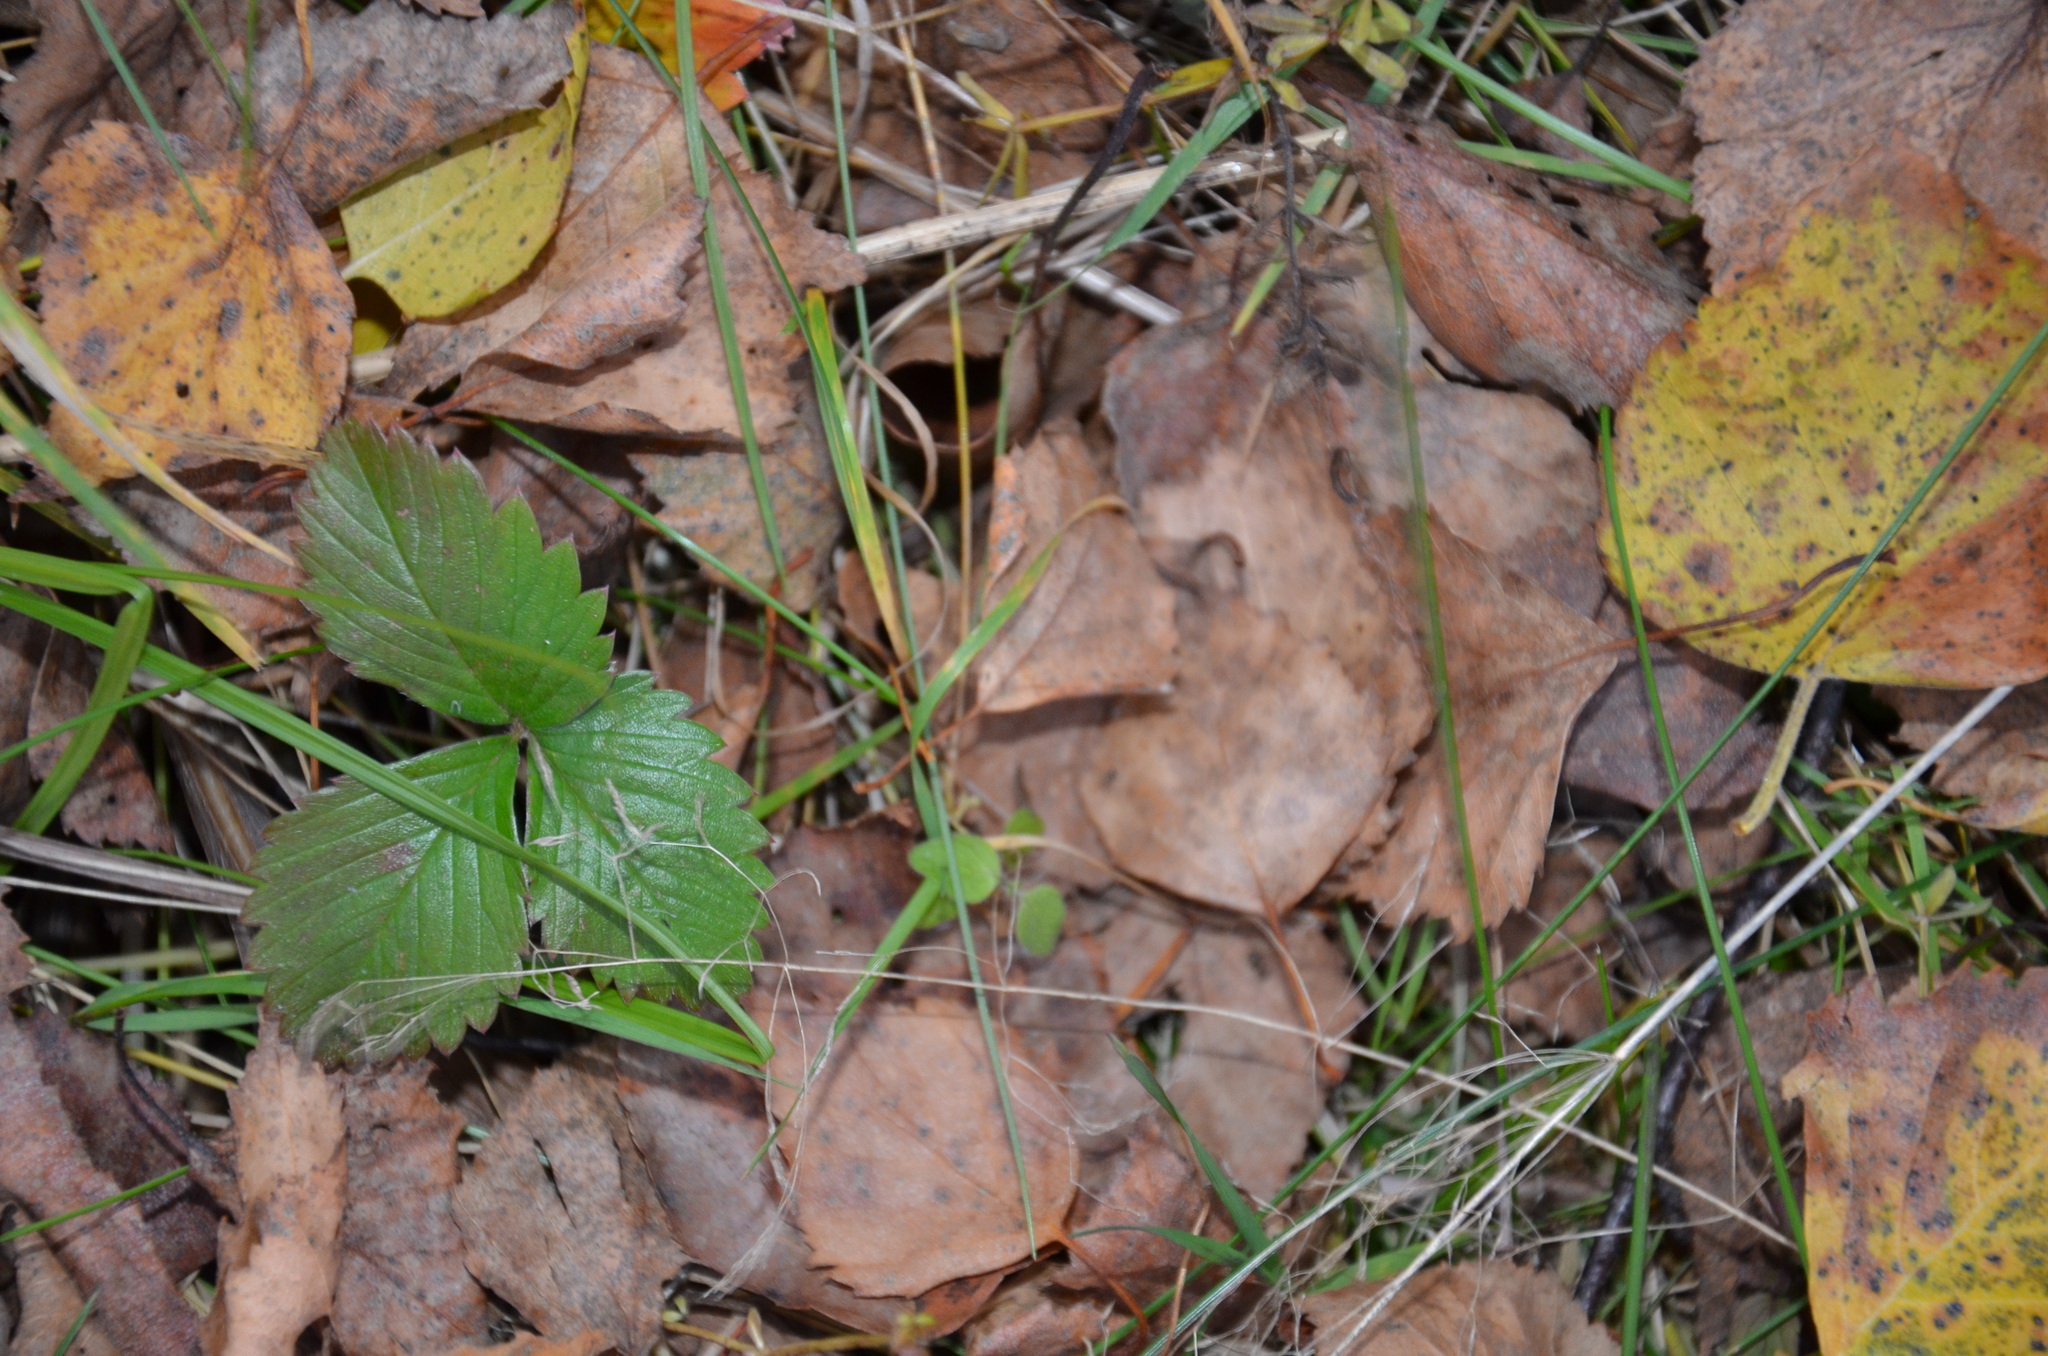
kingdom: Plantae
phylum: Tracheophyta
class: Magnoliopsida
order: Rosales
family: Rosaceae
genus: Fragaria
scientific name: Fragaria vesca
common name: Wild strawberry
